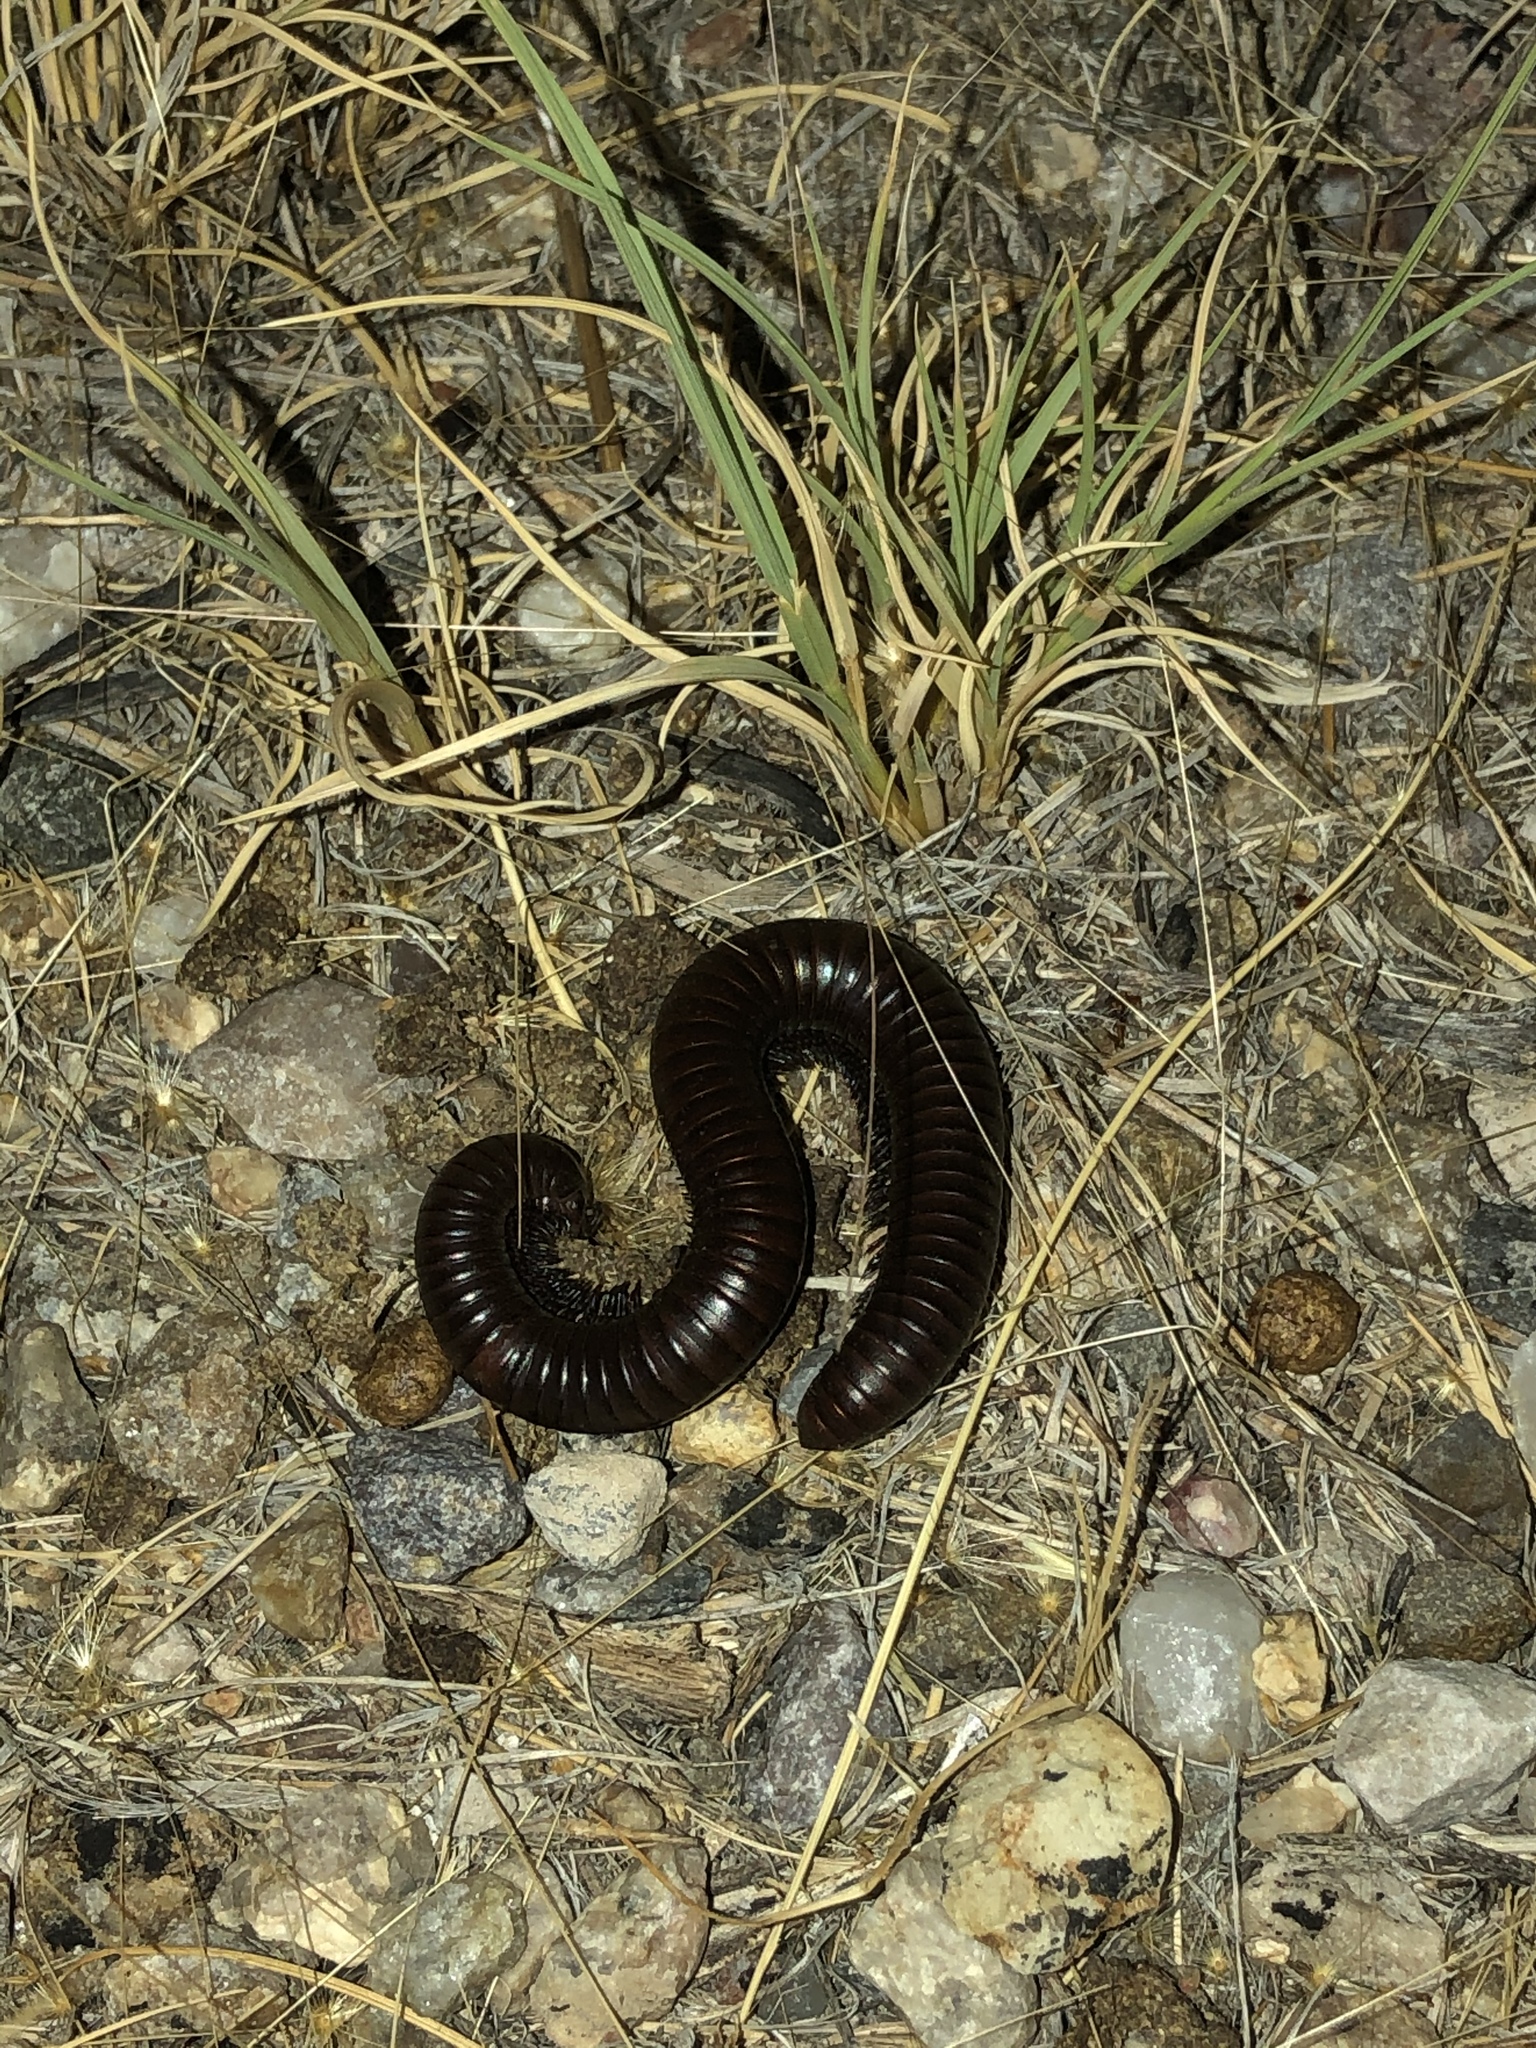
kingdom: Animalia
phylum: Arthropoda
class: Diplopoda
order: Spirostreptida
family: Spirostreptidae
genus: Orthoporus
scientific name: Orthoporus ornatus
